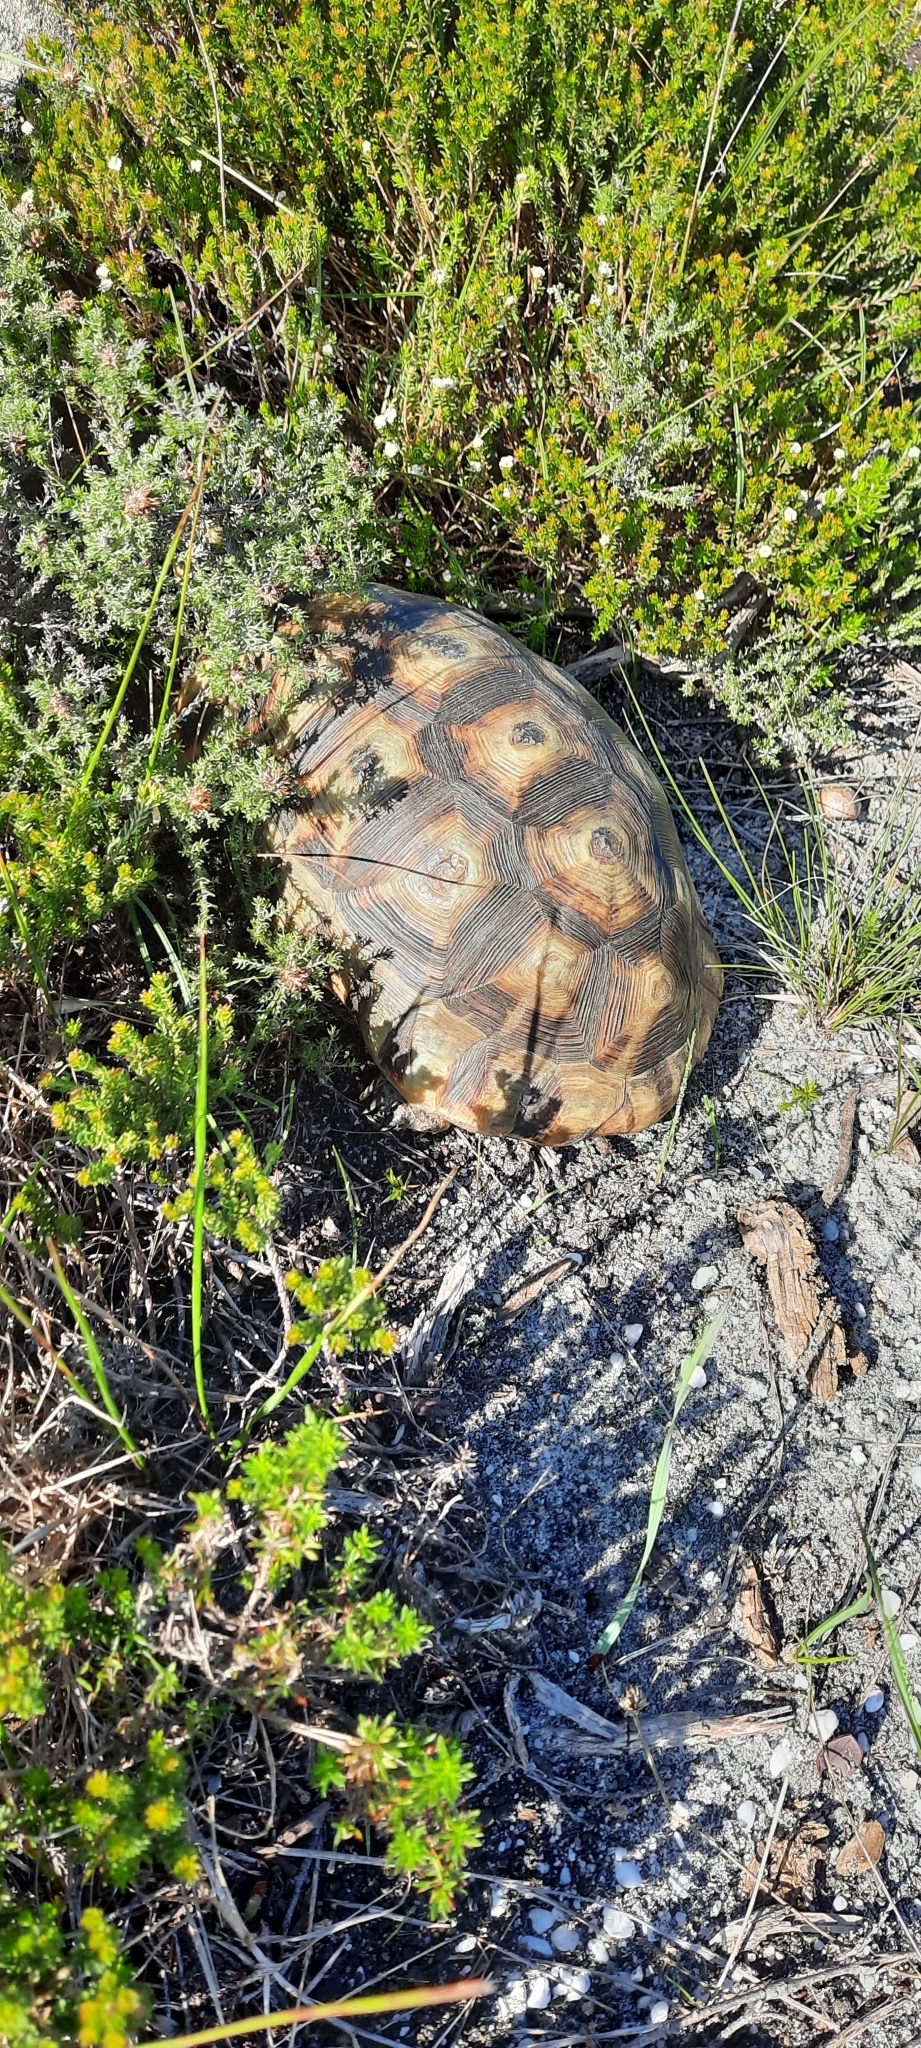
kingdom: Animalia
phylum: Chordata
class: Testudines
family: Testudinidae
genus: Chersina
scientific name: Chersina angulata
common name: South african bowsprit tortoise
